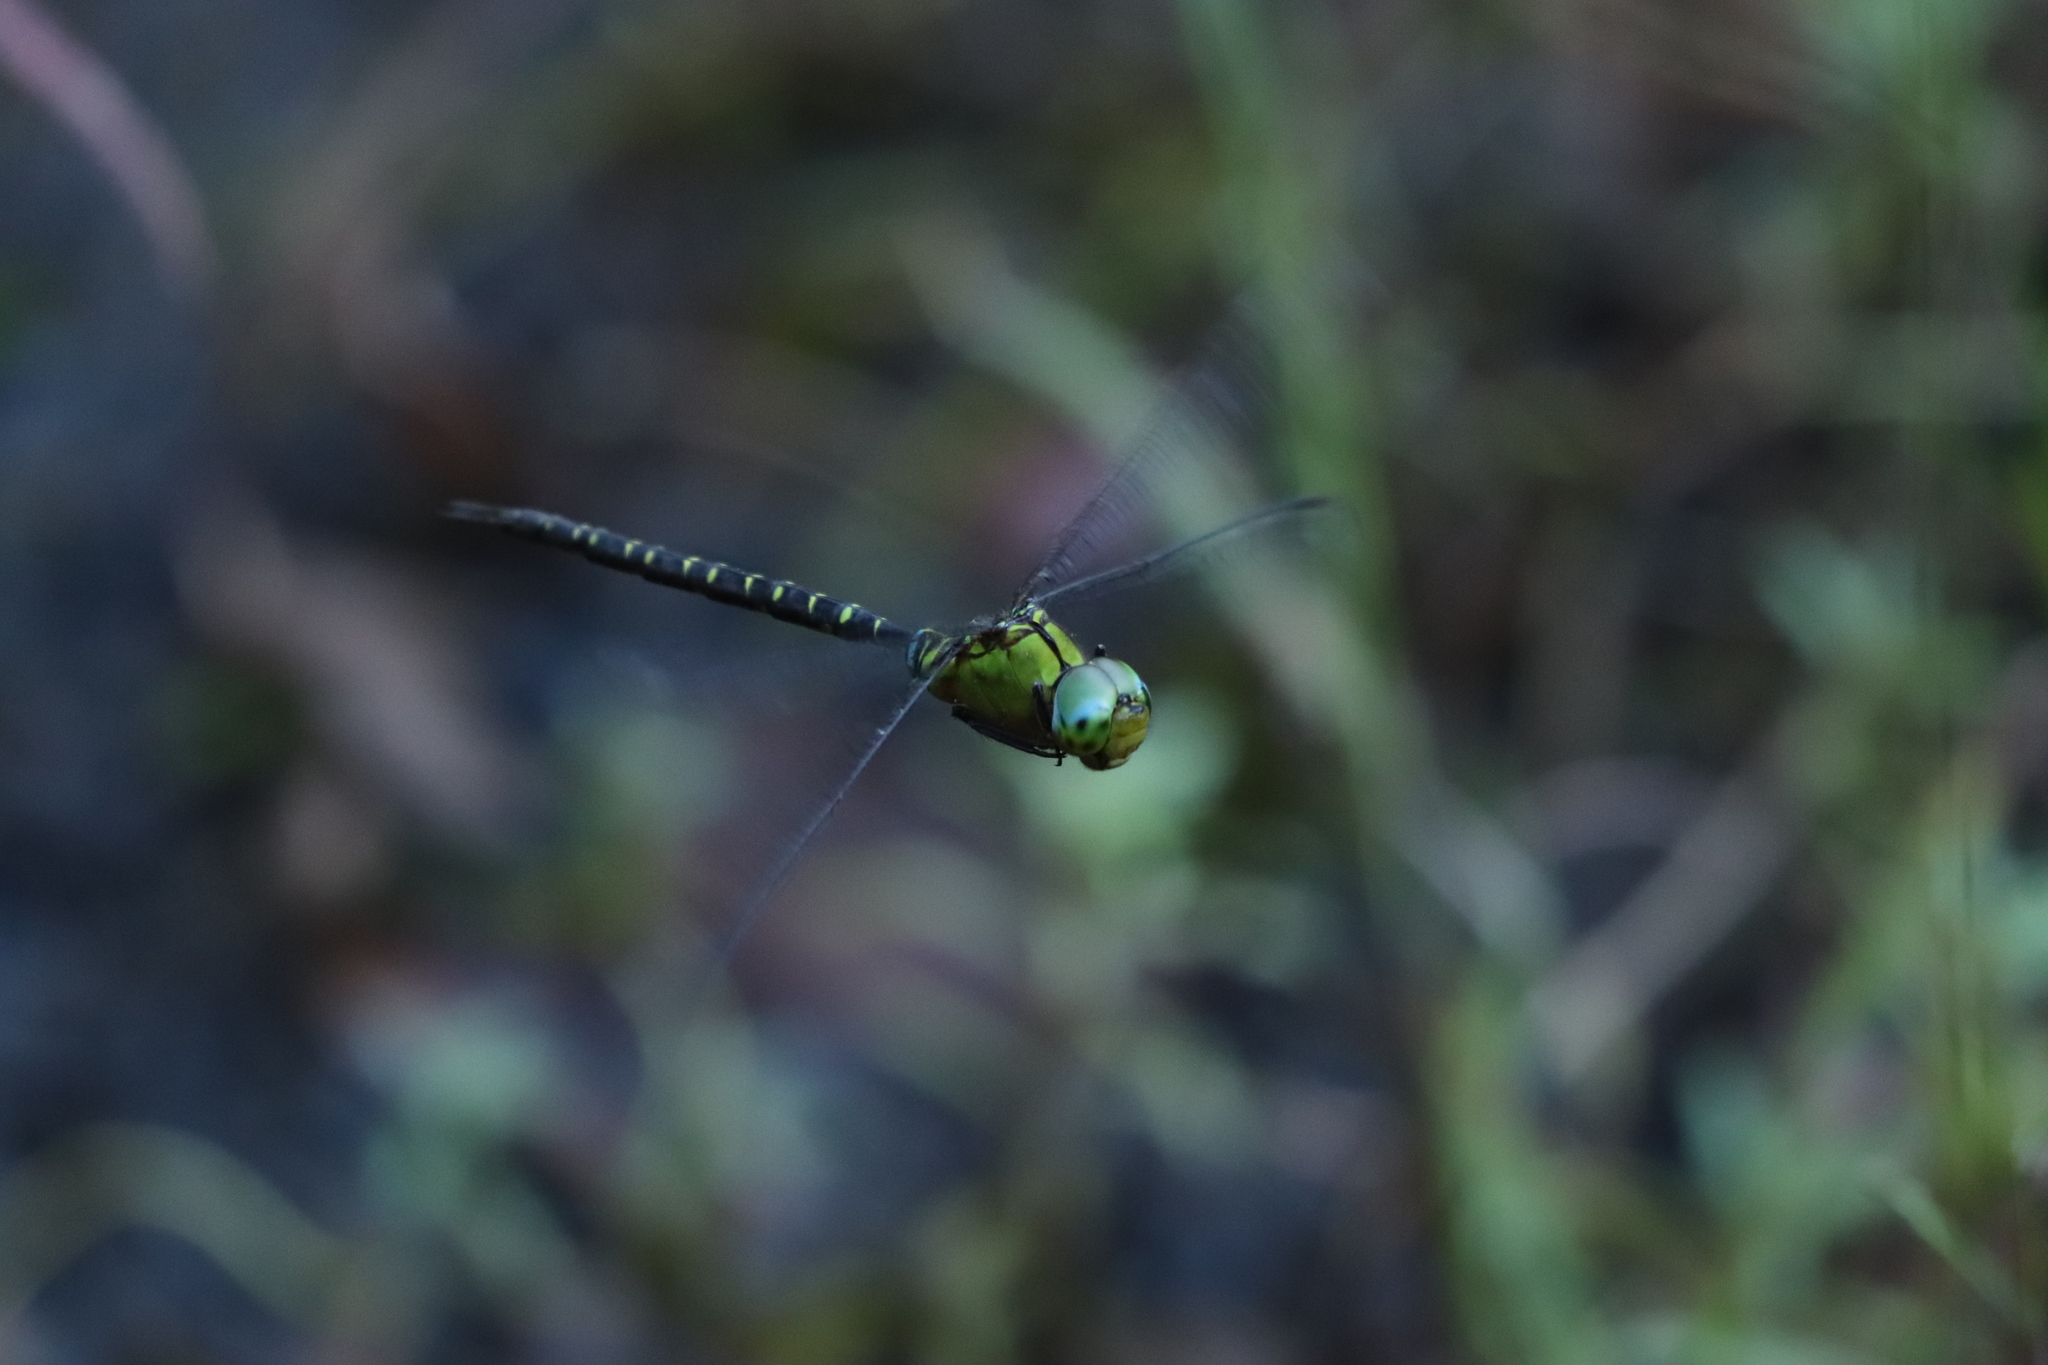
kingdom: Animalia
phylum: Arthropoda
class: Insecta
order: Odonata
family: Aeshnidae
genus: Gynacantha
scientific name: Gynacantha japonica
